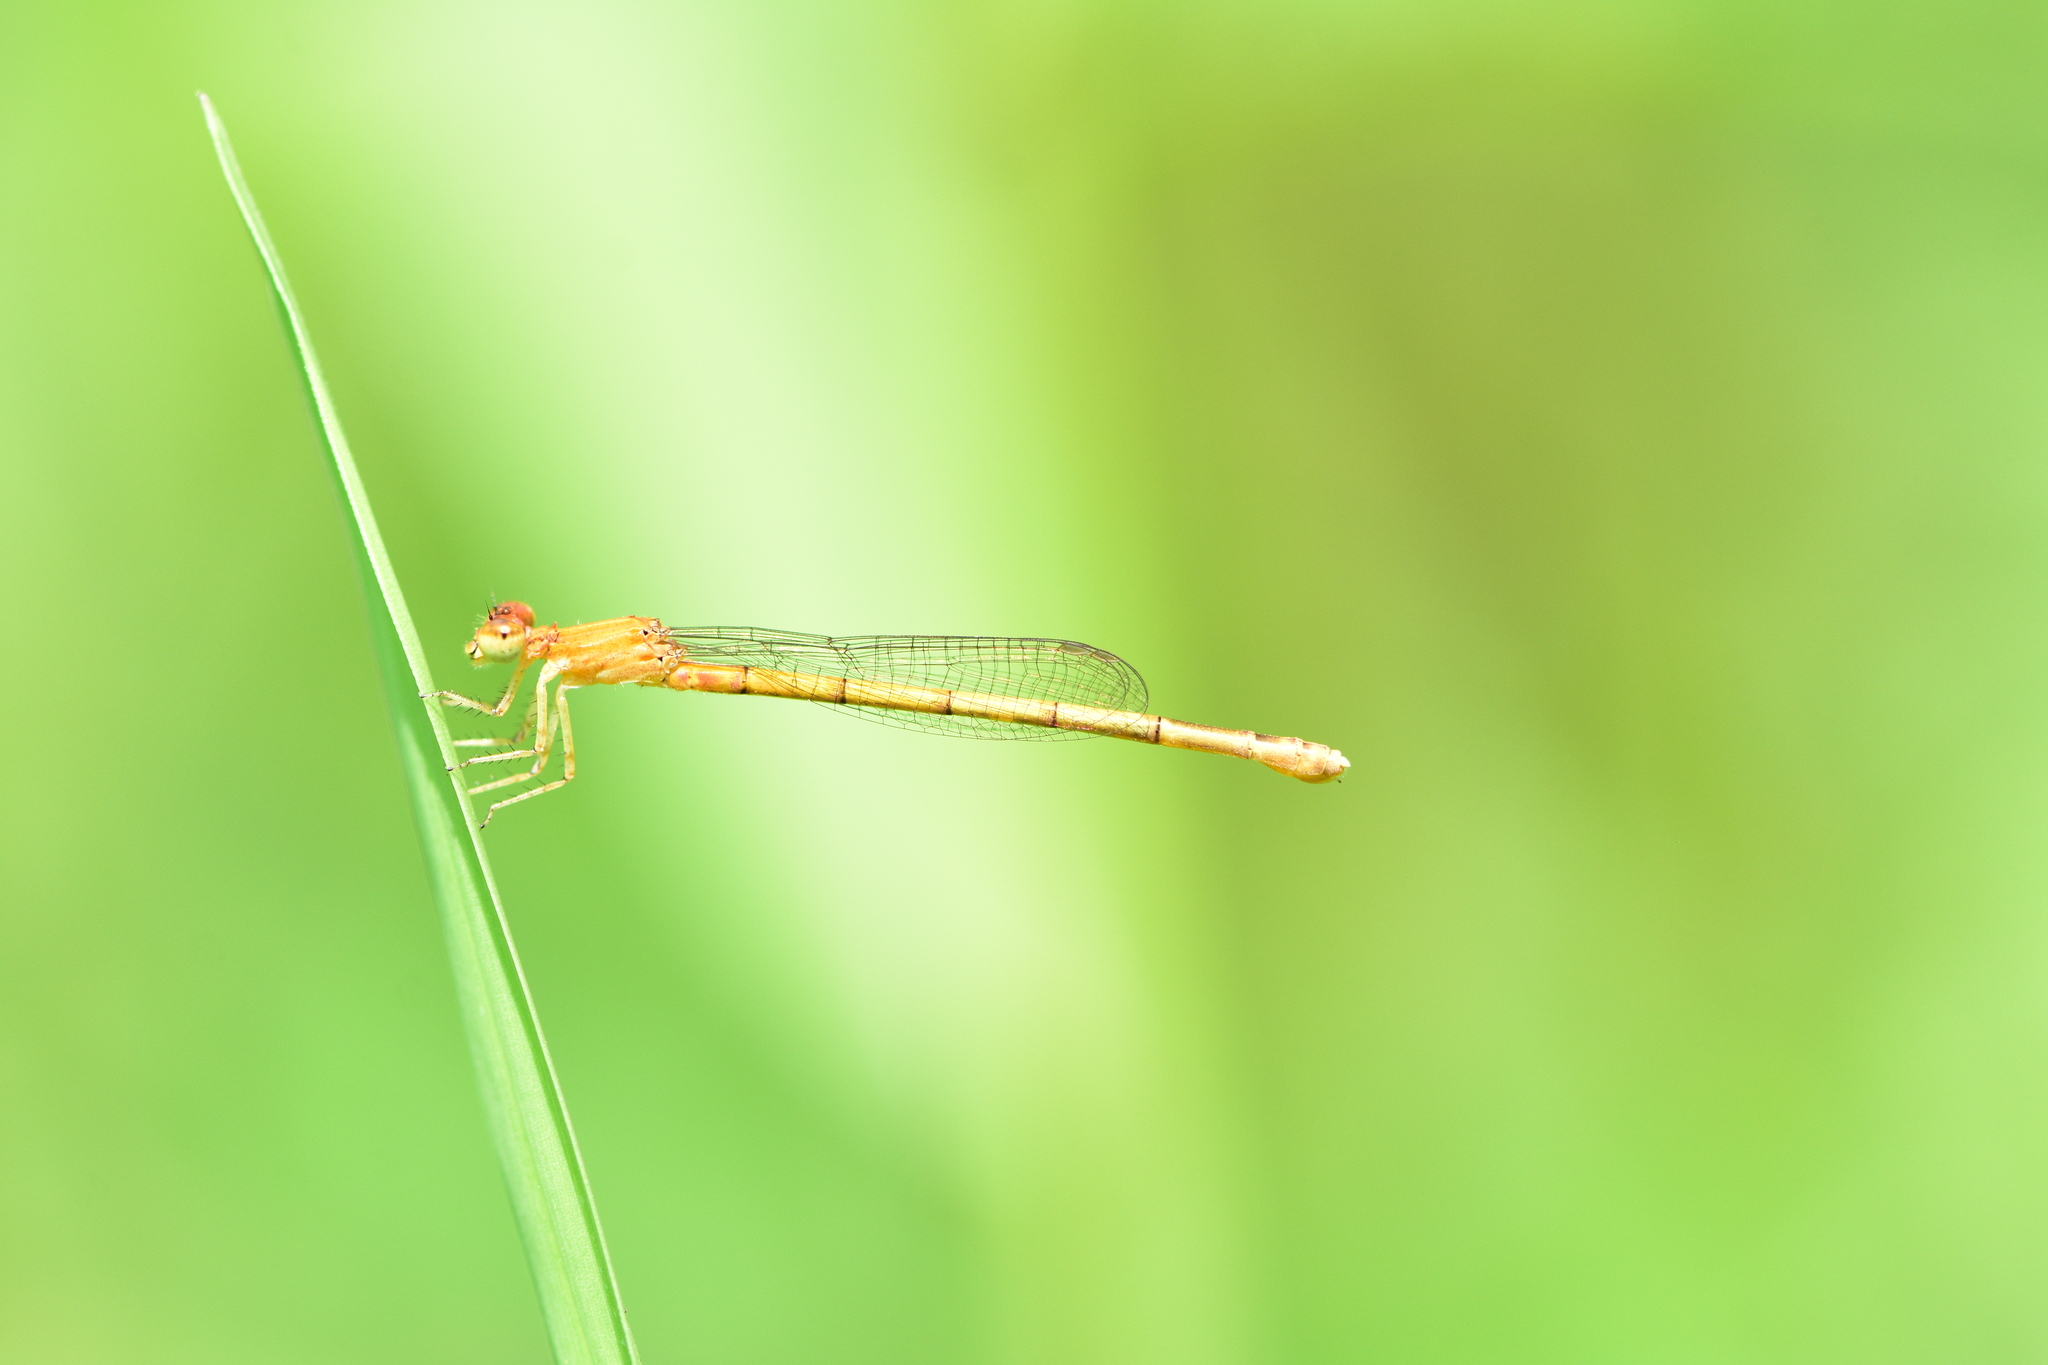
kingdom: Animalia
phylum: Arthropoda
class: Insecta
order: Odonata
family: Coenagrionidae
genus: Agriocnemis
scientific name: Agriocnemis pieris
